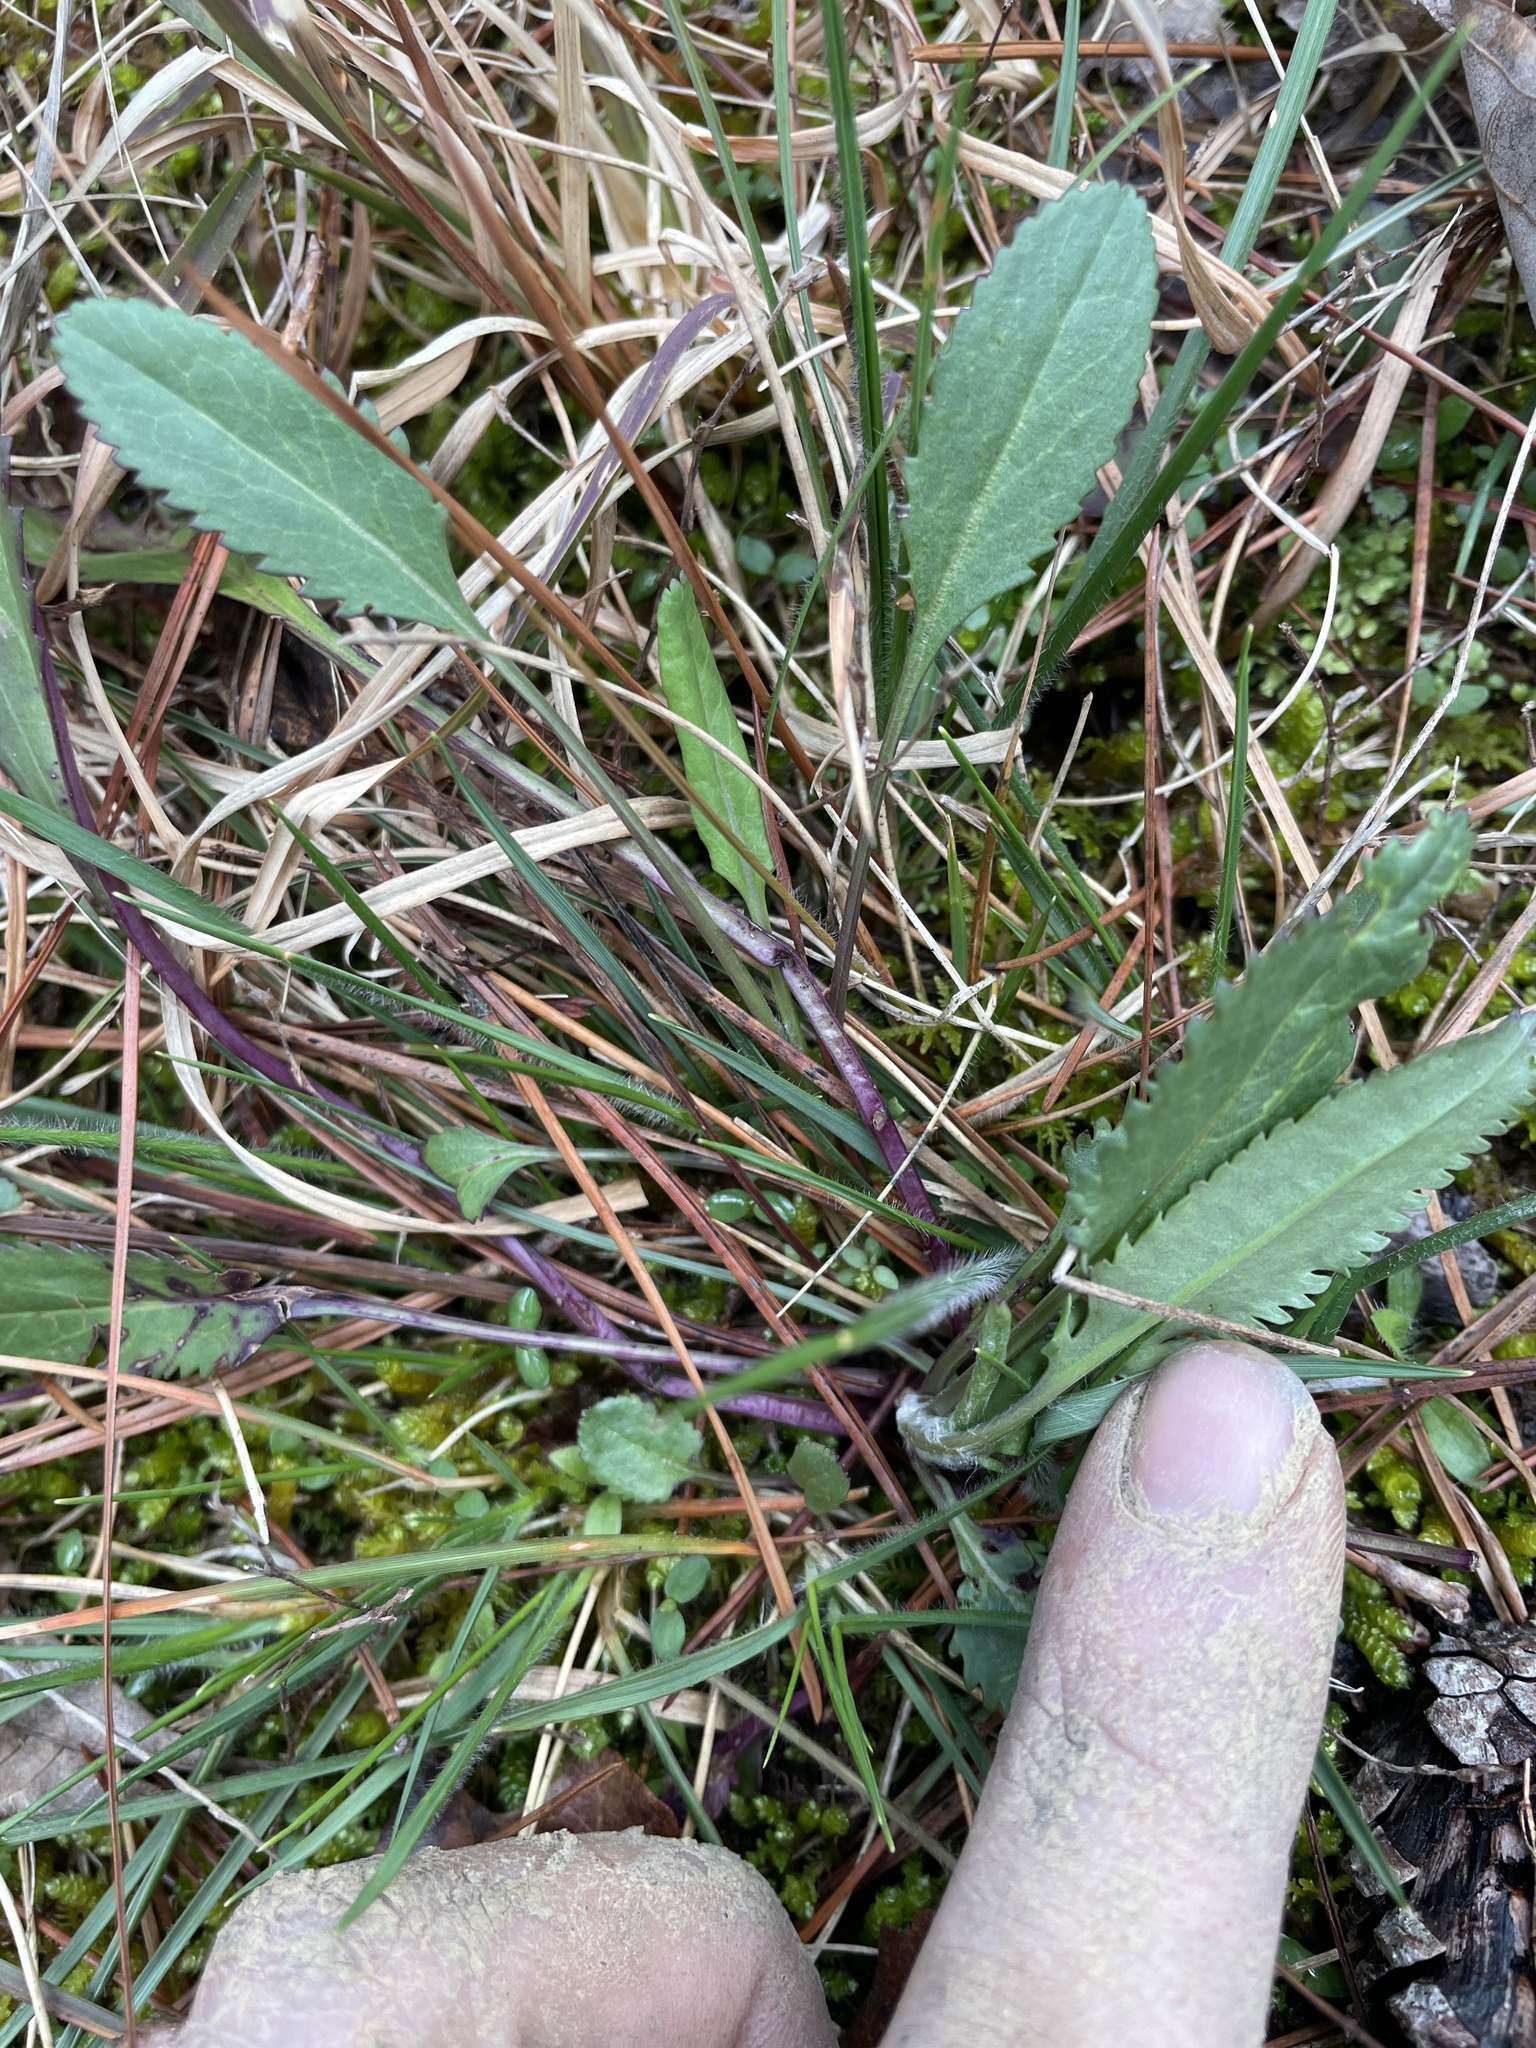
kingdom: Plantae
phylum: Tracheophyta
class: Magnoliopsida
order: Asterales
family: Asteraceae
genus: Packera
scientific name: Packera anonyma
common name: Small ragwort
